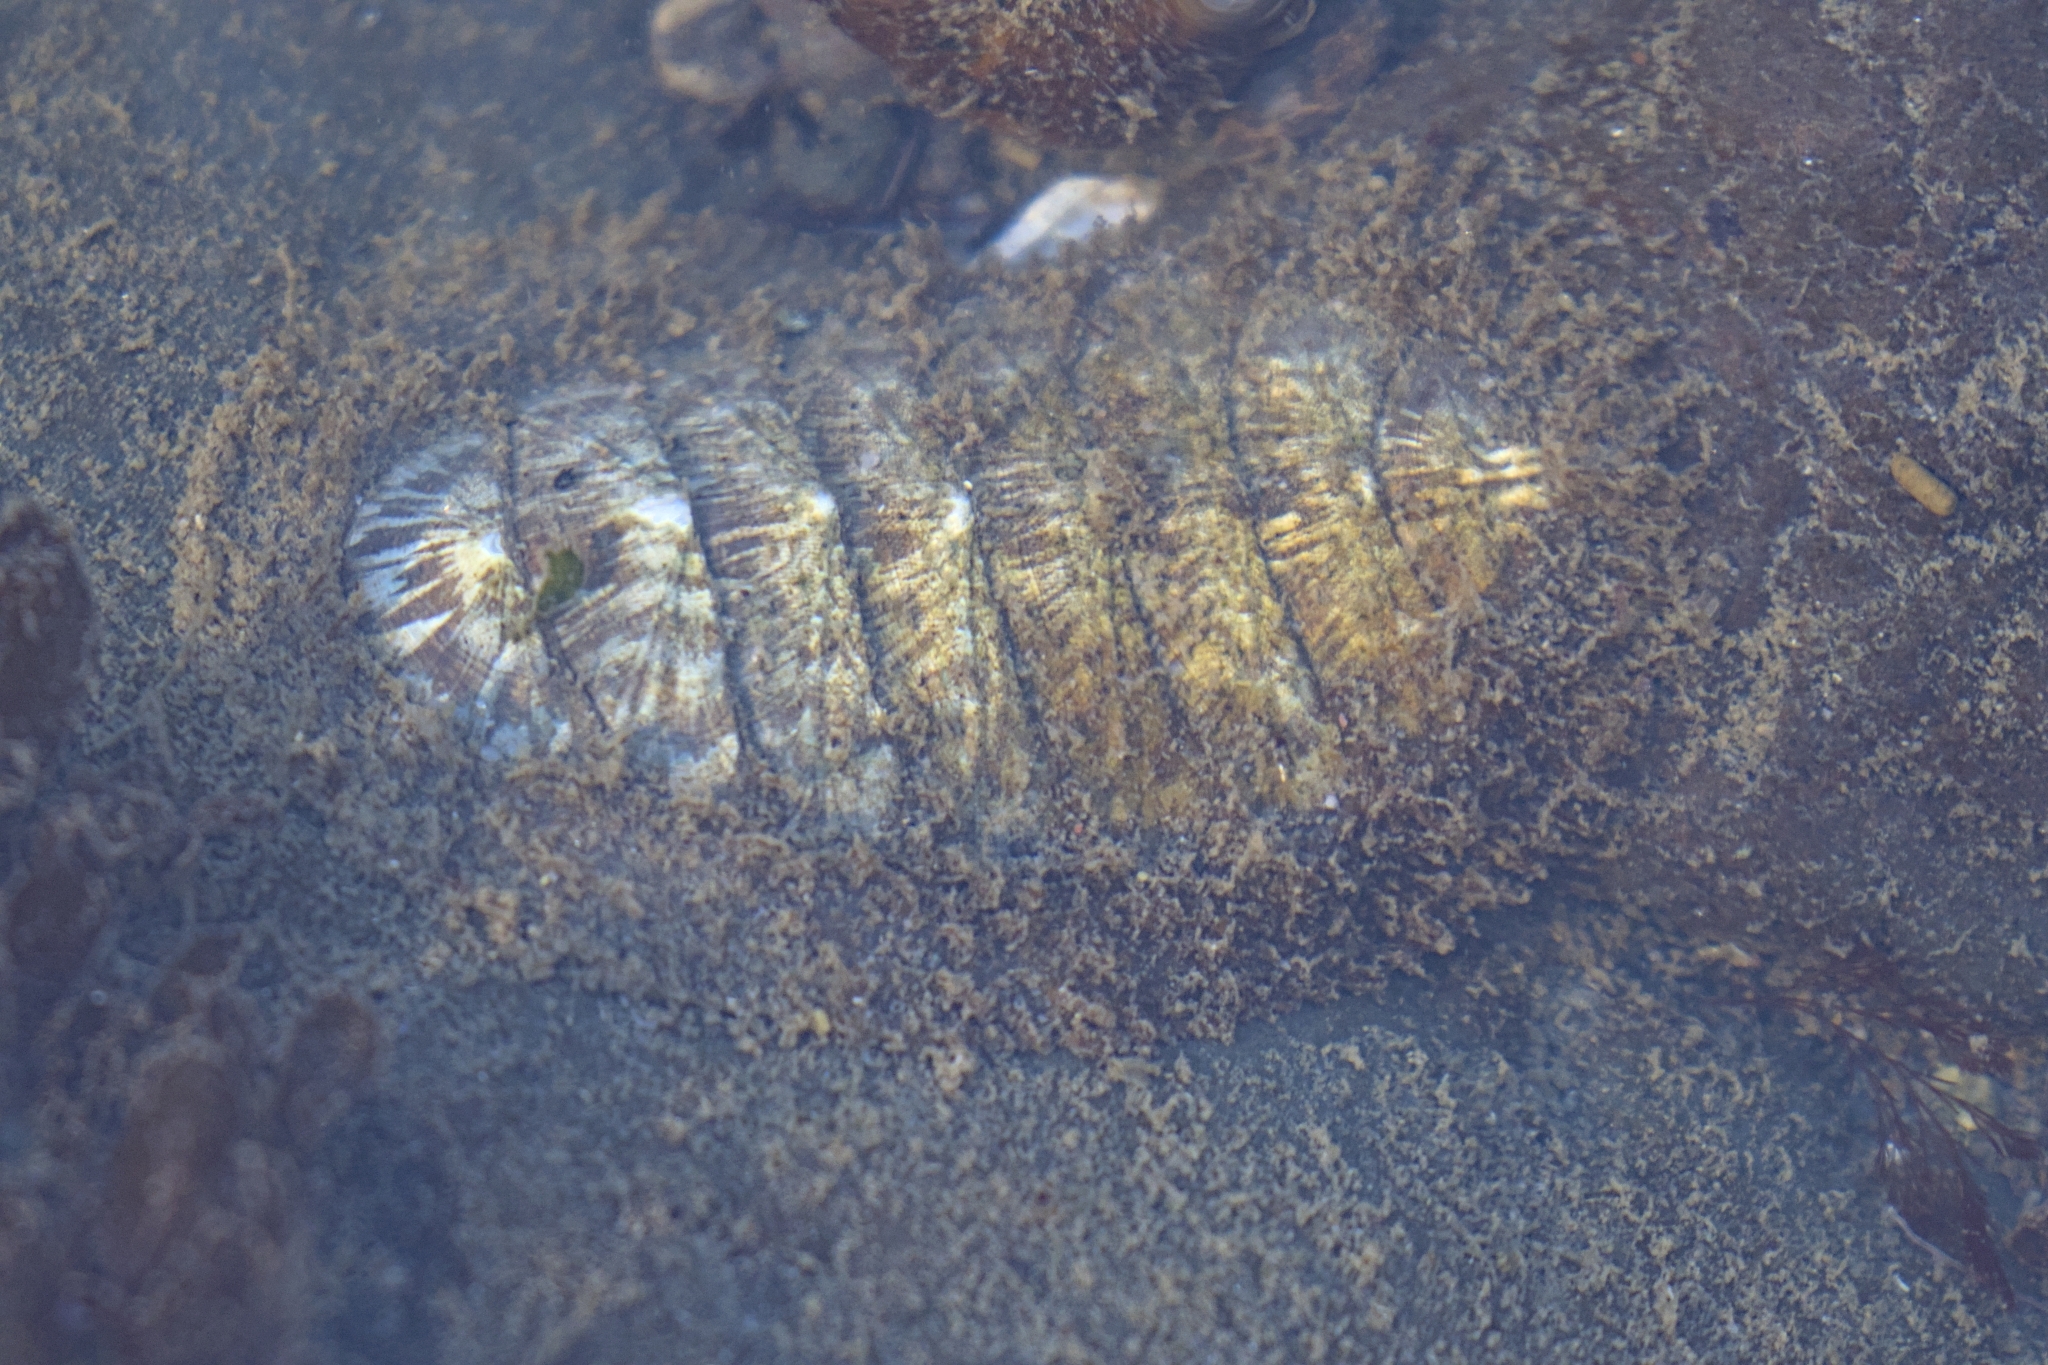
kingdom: Animalia
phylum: Mollusca
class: Polyplacophora
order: Chitonida
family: Mopaliidae
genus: Mopalia
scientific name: Mopalia lignosa
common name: Woody chiton
